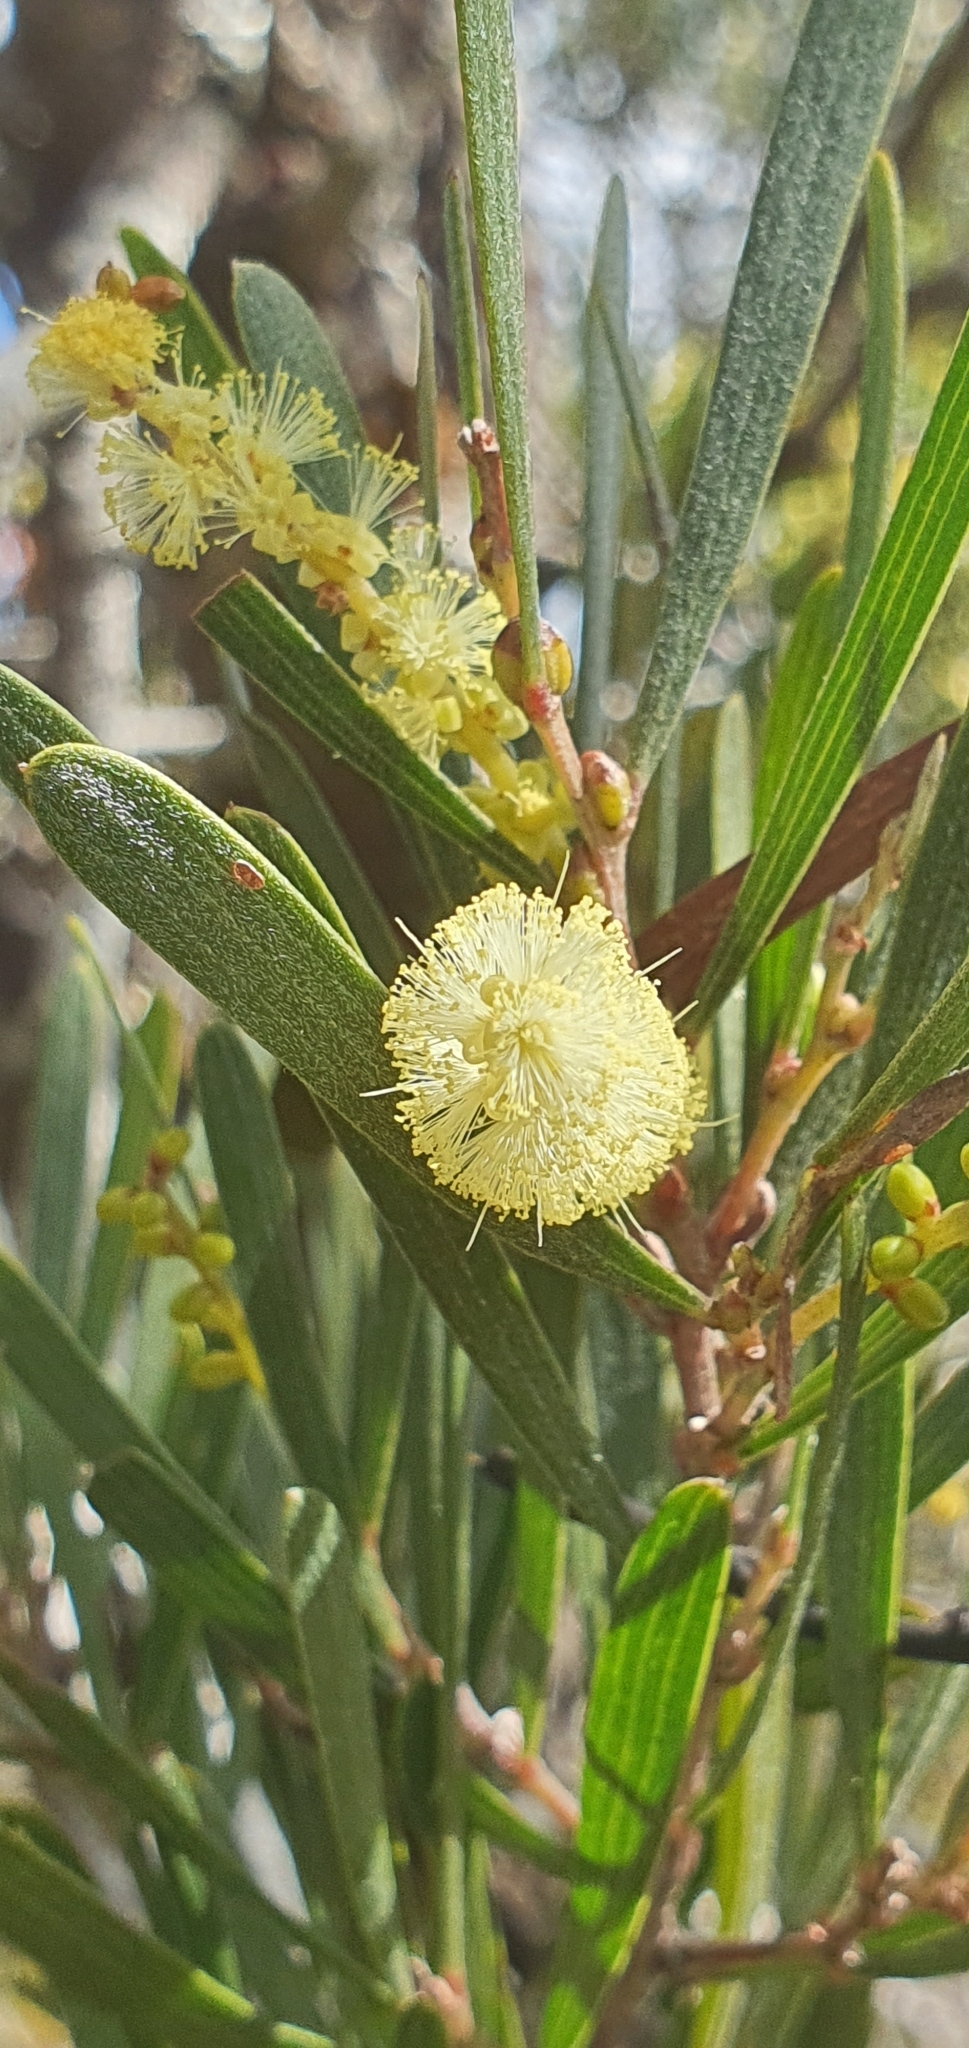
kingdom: Plantae
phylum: Tracheophyta
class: Magnoliopsida
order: Fabales
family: Fabaceae
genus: Acacia
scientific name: Acacia mucronata
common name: Variable sallow wattle
